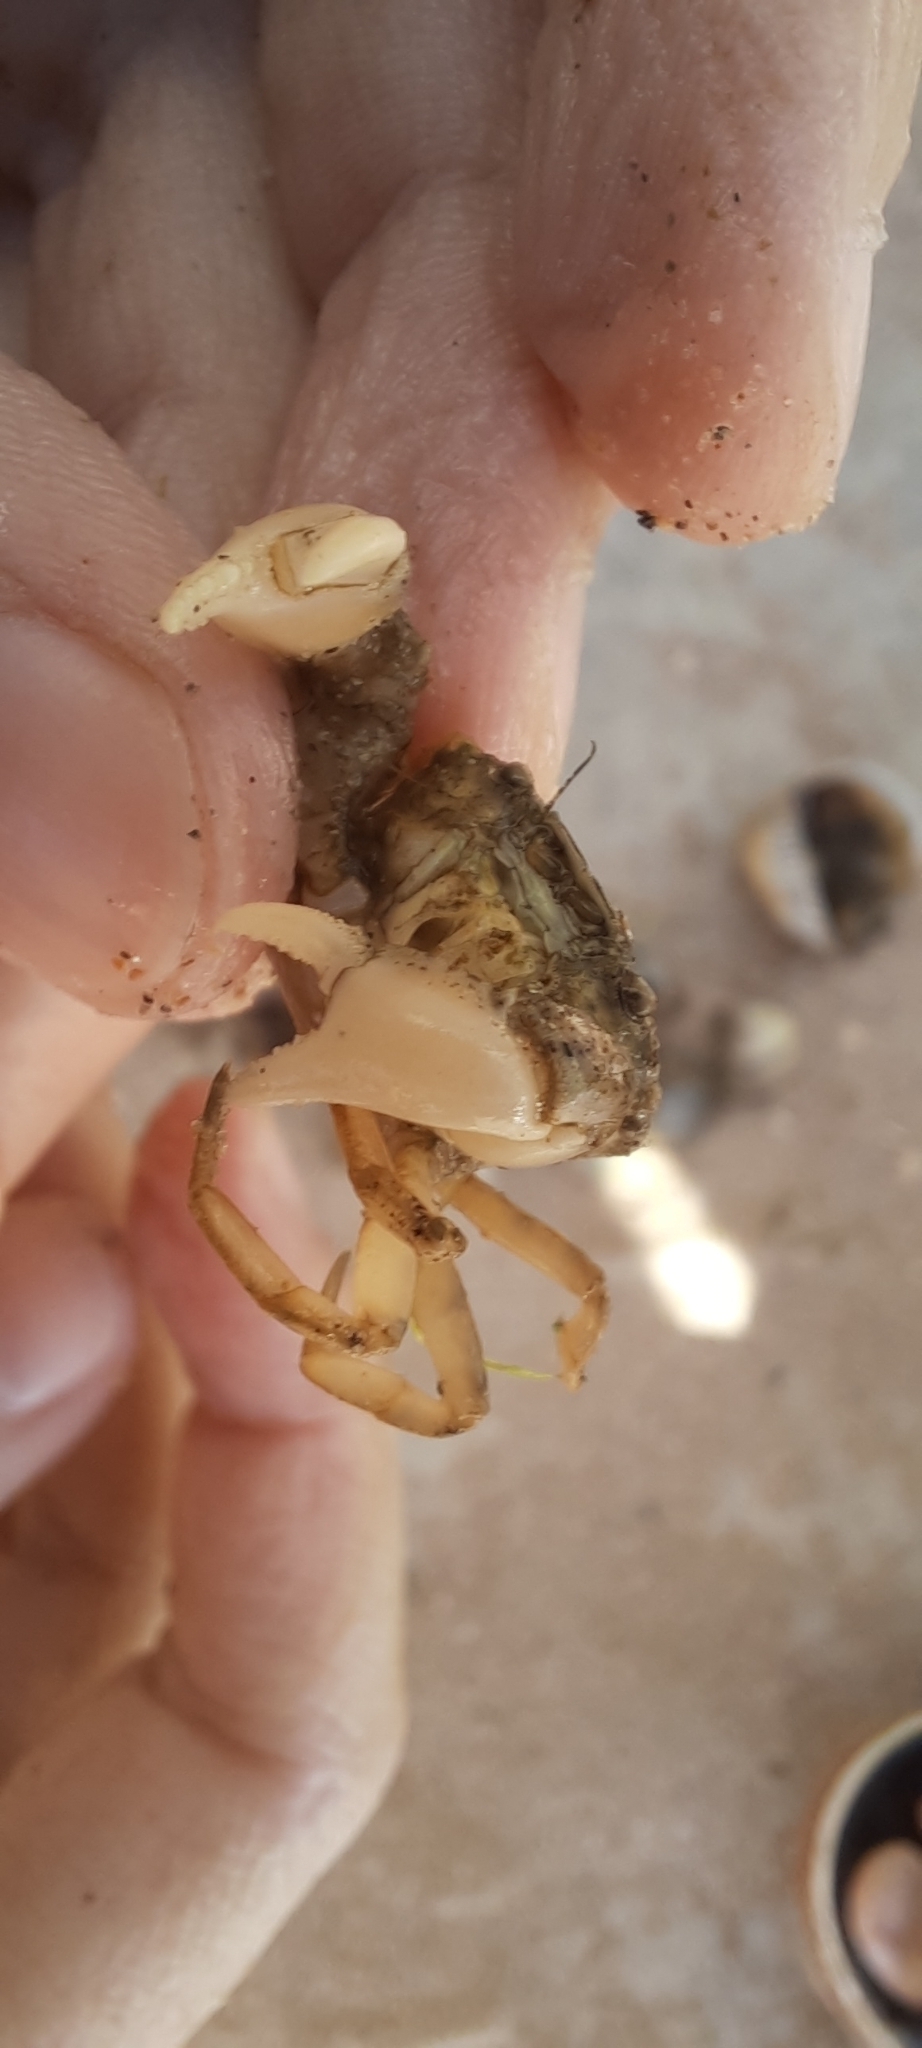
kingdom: Animalia
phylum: Arthropoda
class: Malacostraca
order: Decapoda
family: Panopeidae
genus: Rhithropanopeus
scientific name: Rhithropanopeus harrisii
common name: Dwarf crab
